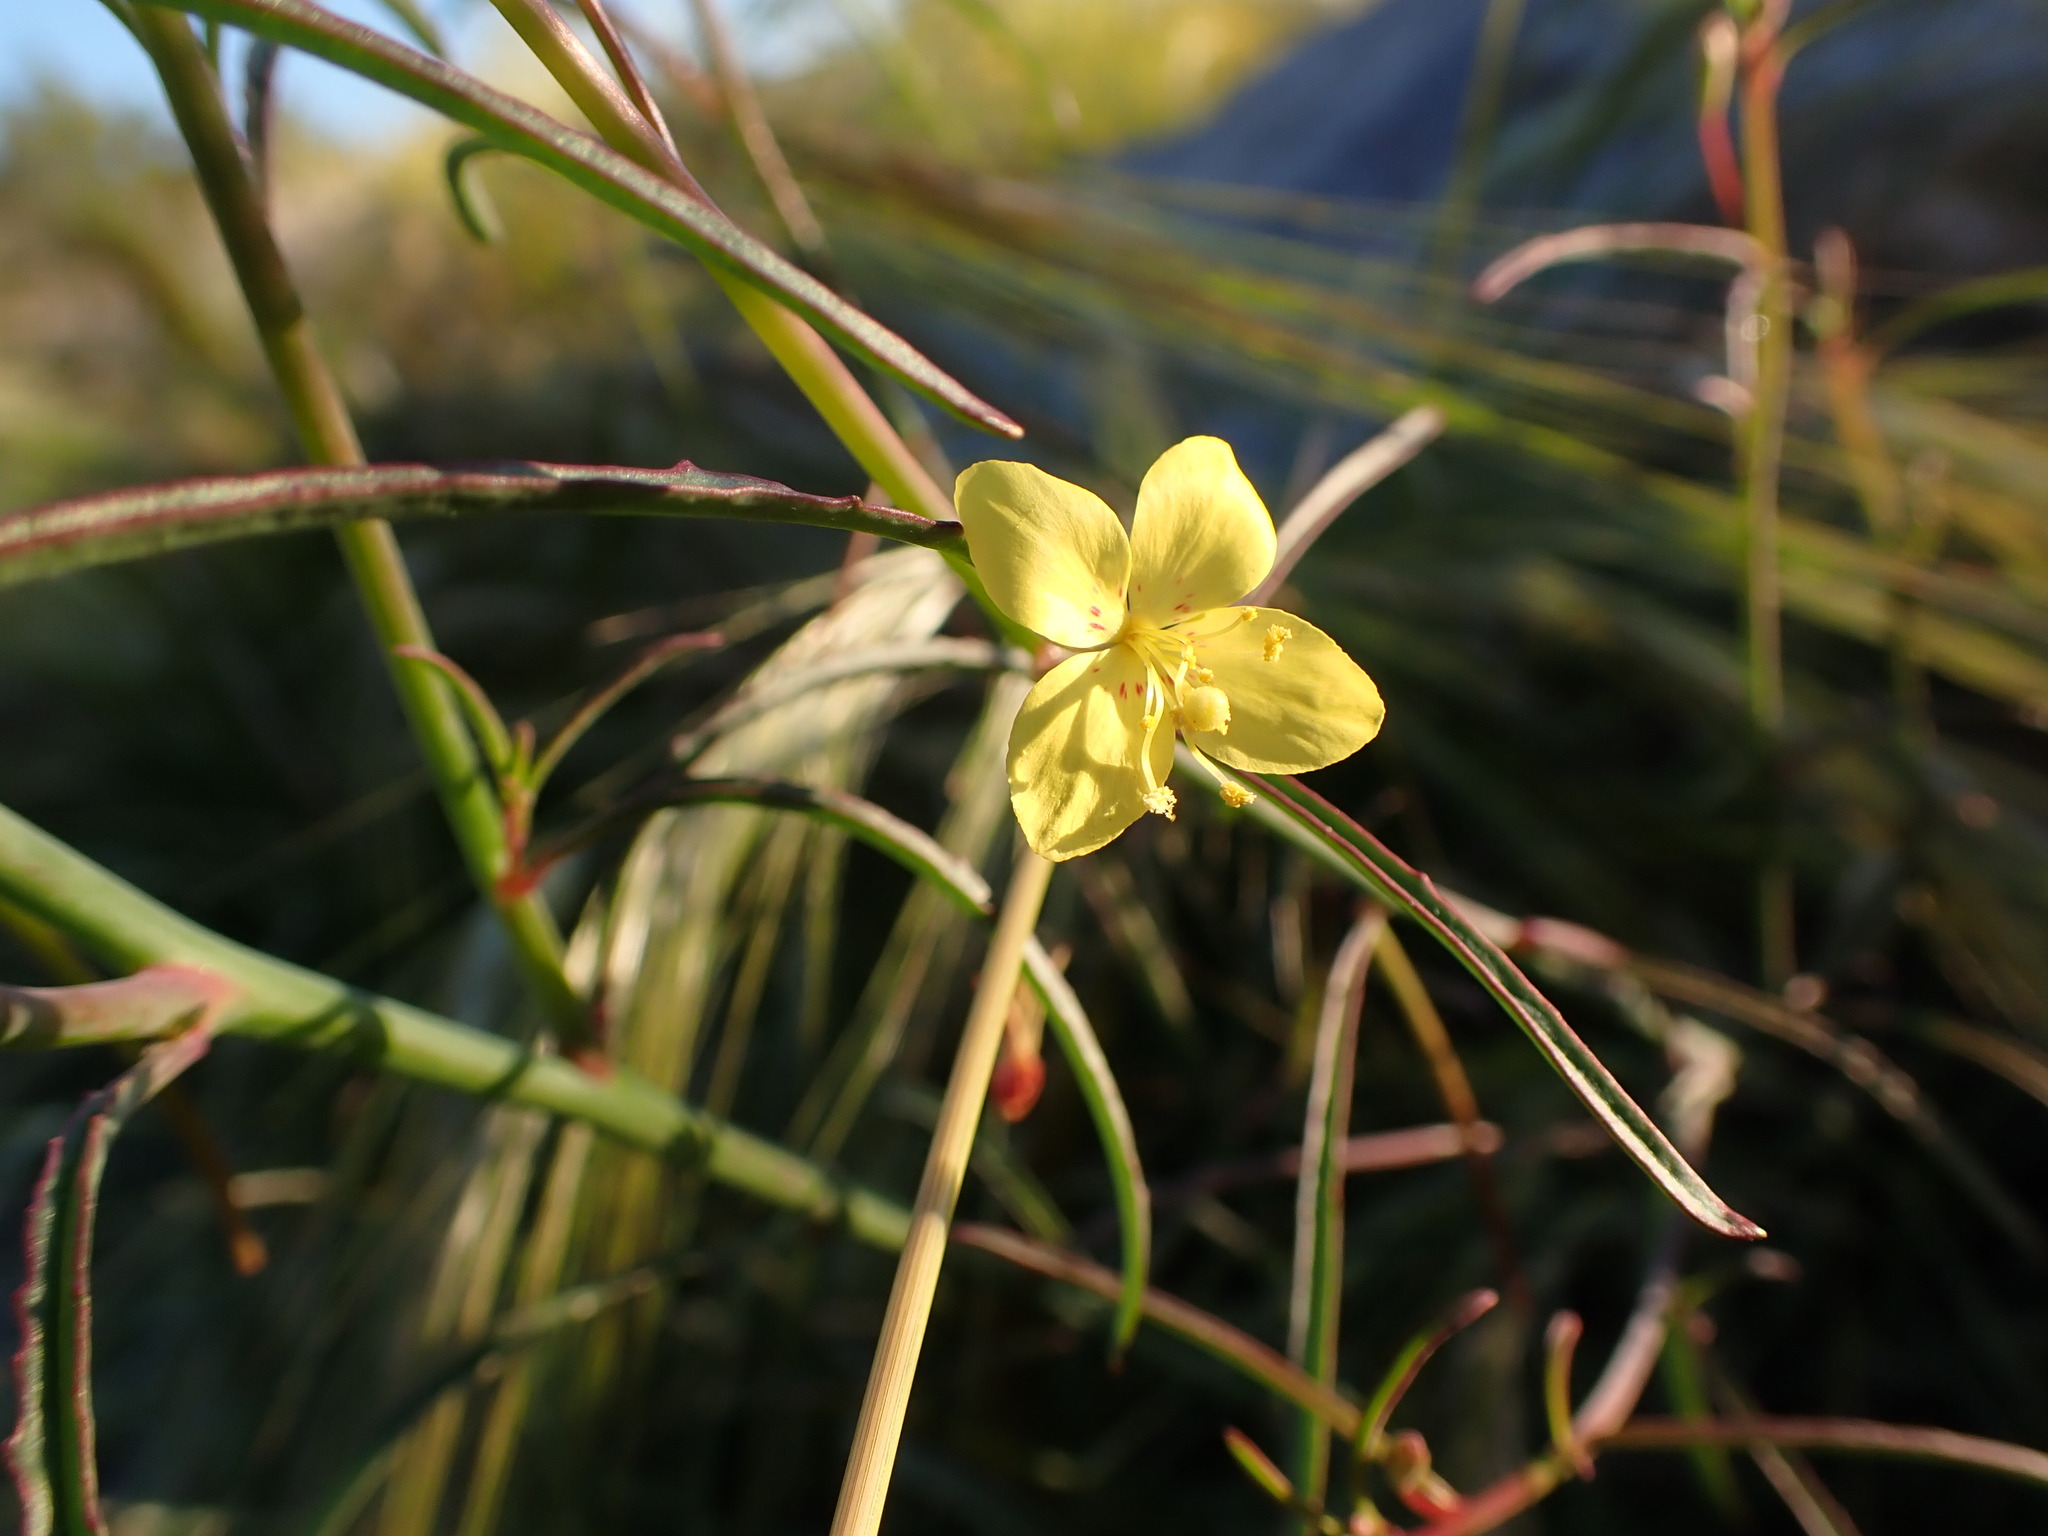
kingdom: Plantae
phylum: Tracheophyta
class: Magnoliopsida
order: Myrtales
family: Onagraceae
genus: Eulobus
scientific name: Eulobus californicus
